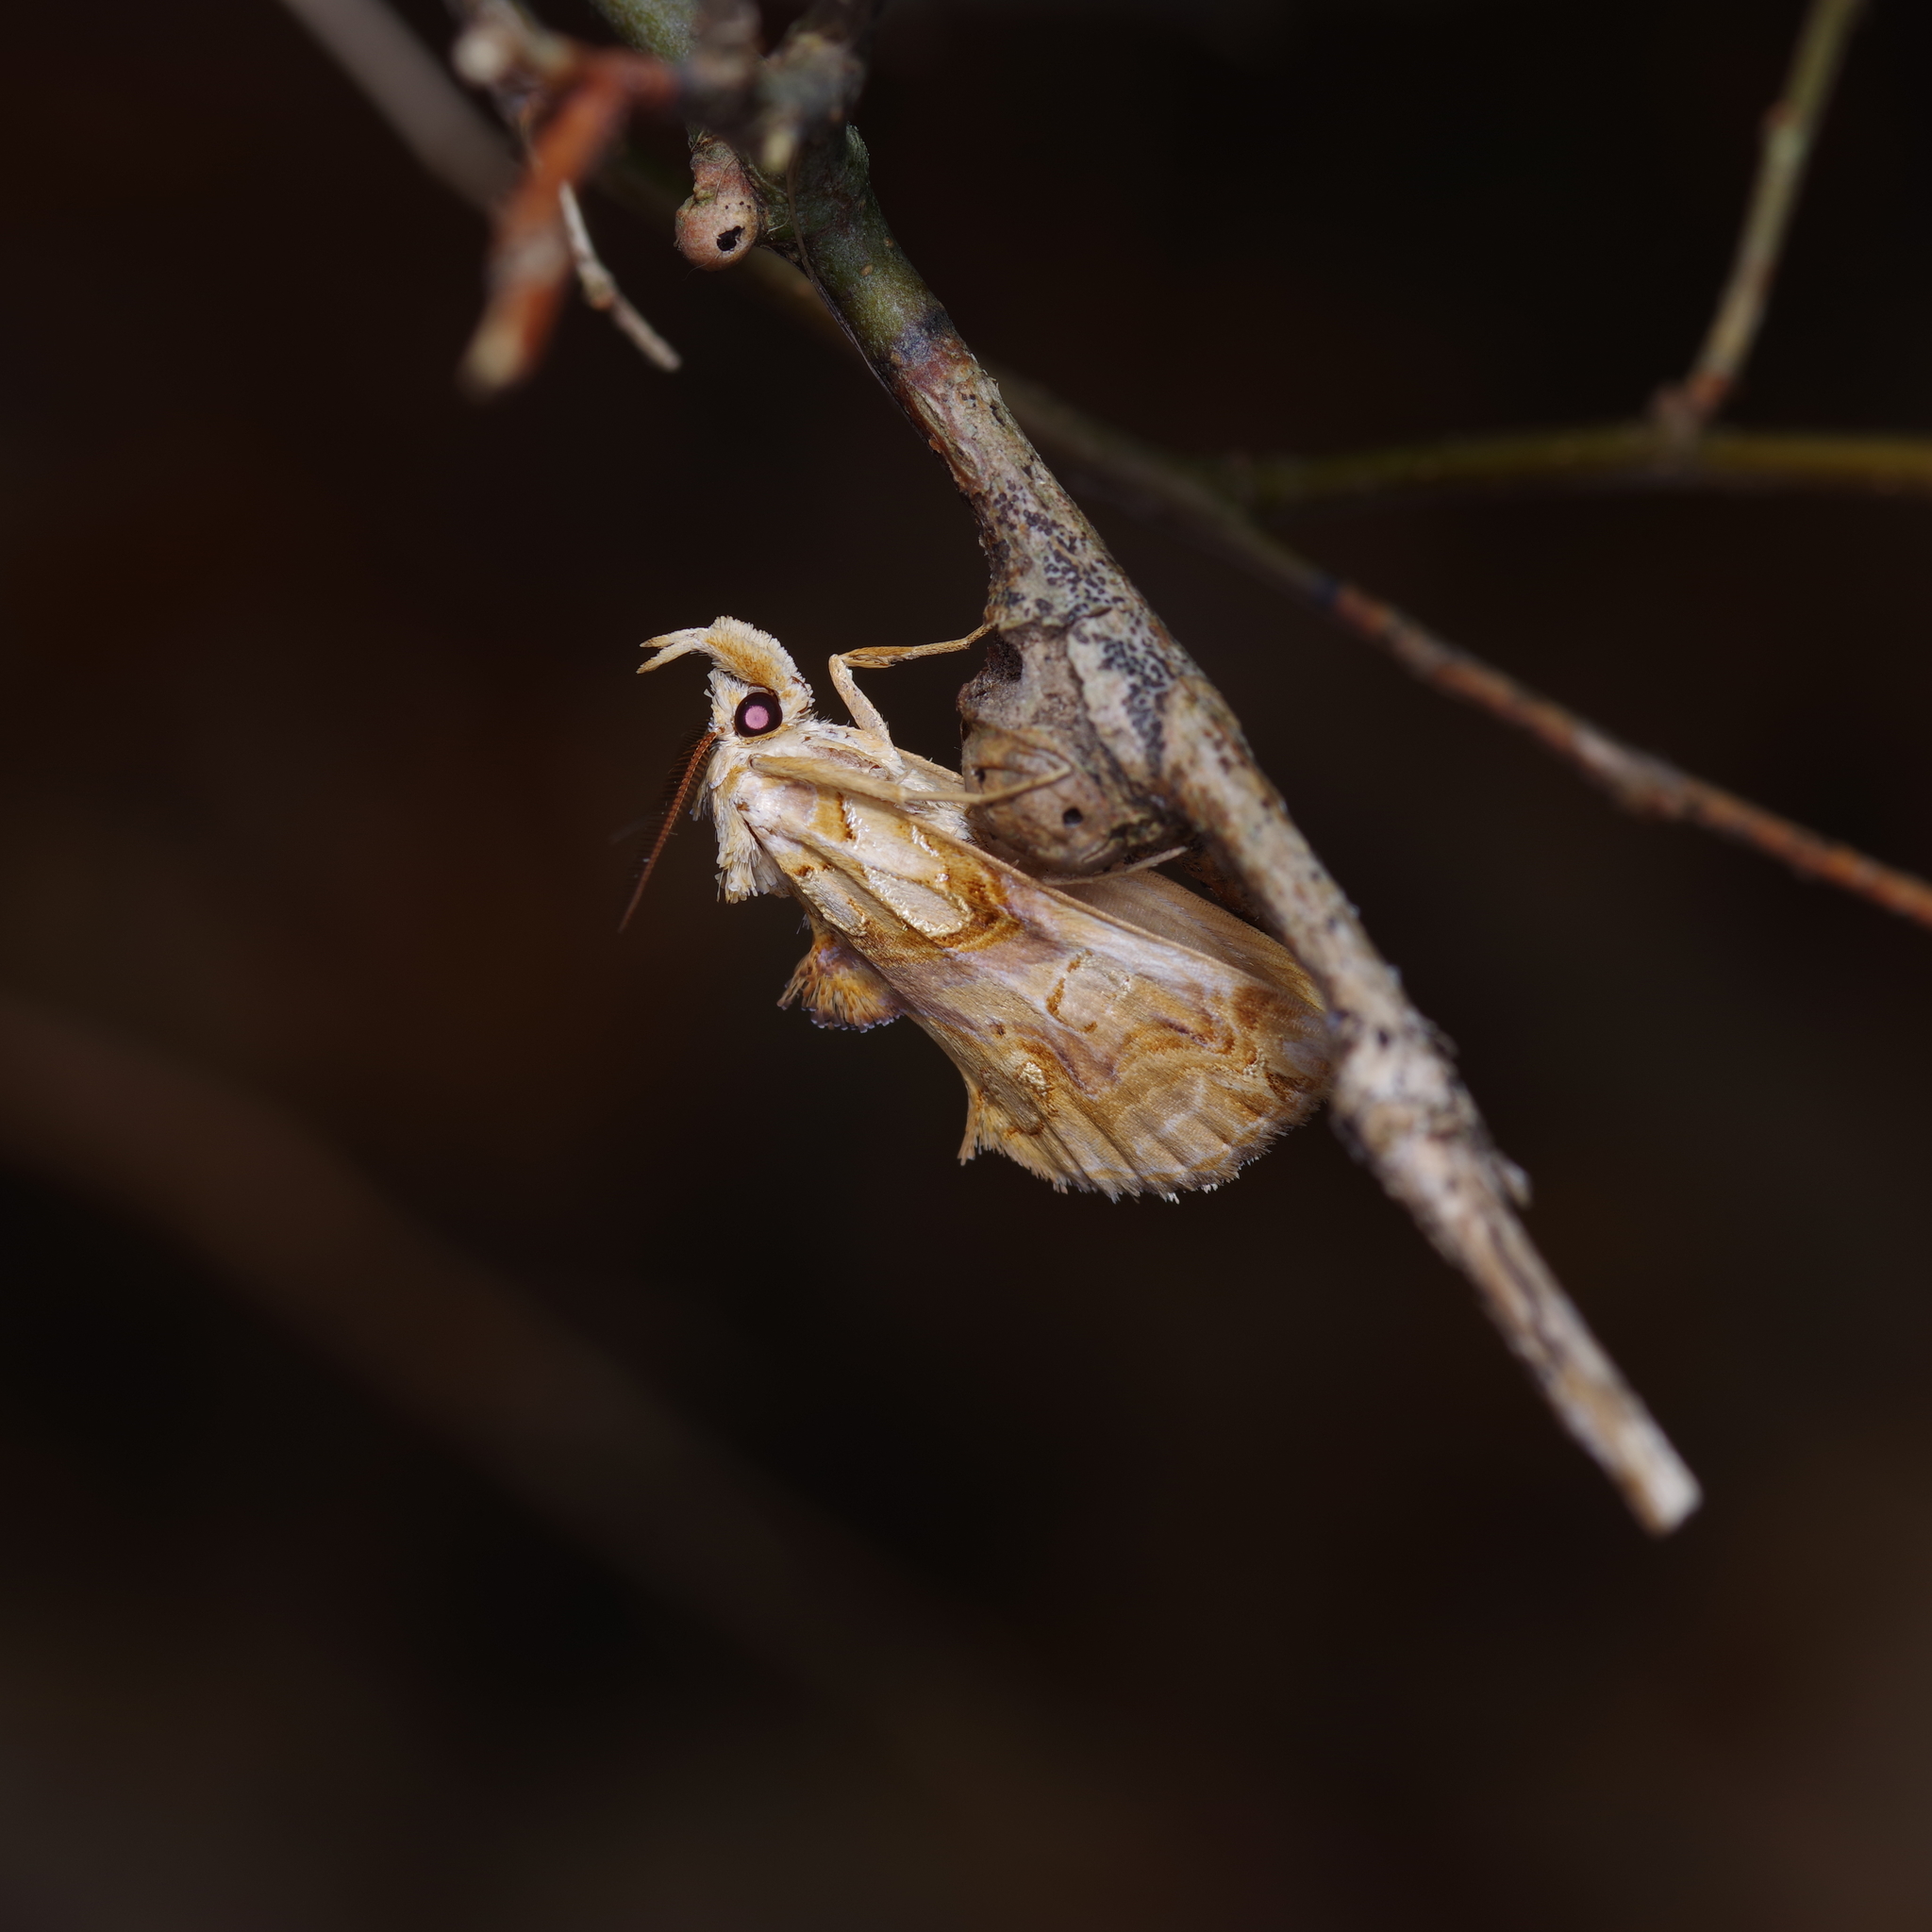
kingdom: Animalia
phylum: Arthropoda
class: Insecta
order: Lepidoptera
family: Erebidae
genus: Plusiodonta
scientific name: Plusiodonta compressipalpis
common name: Moonseed moth
